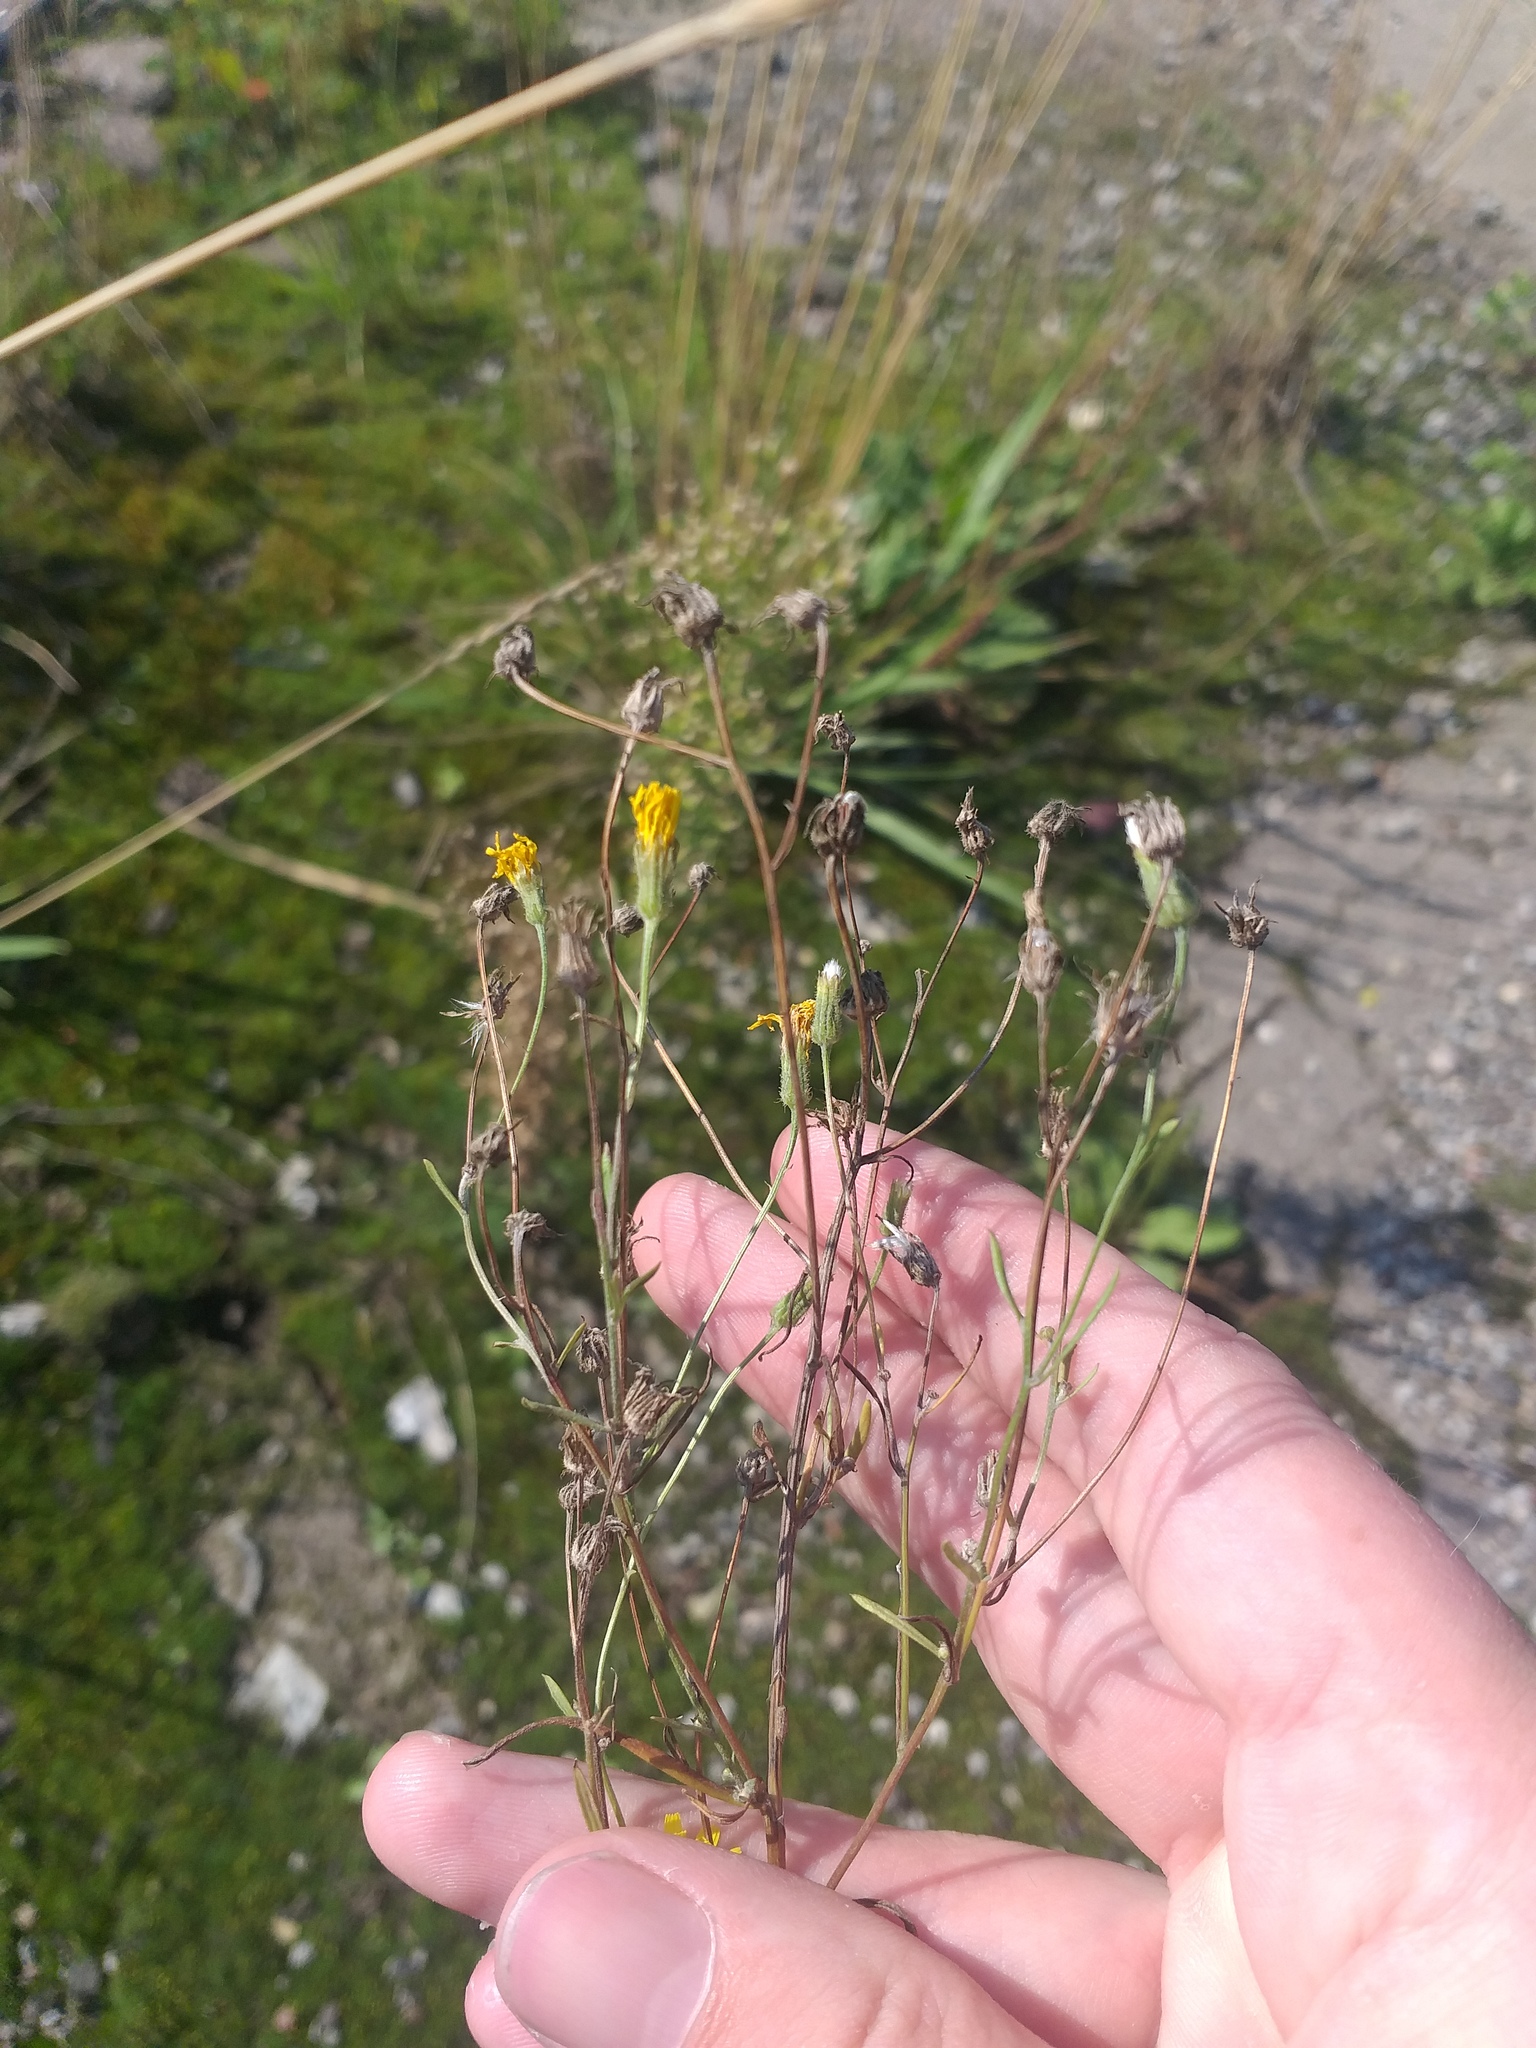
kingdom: Plantae
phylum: Tracheophyta
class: Magnoliopsida
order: Asterales
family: Asteraceae
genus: Crepis
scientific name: Crepis tectorum
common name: Narrow-leaved hawk's-beard
